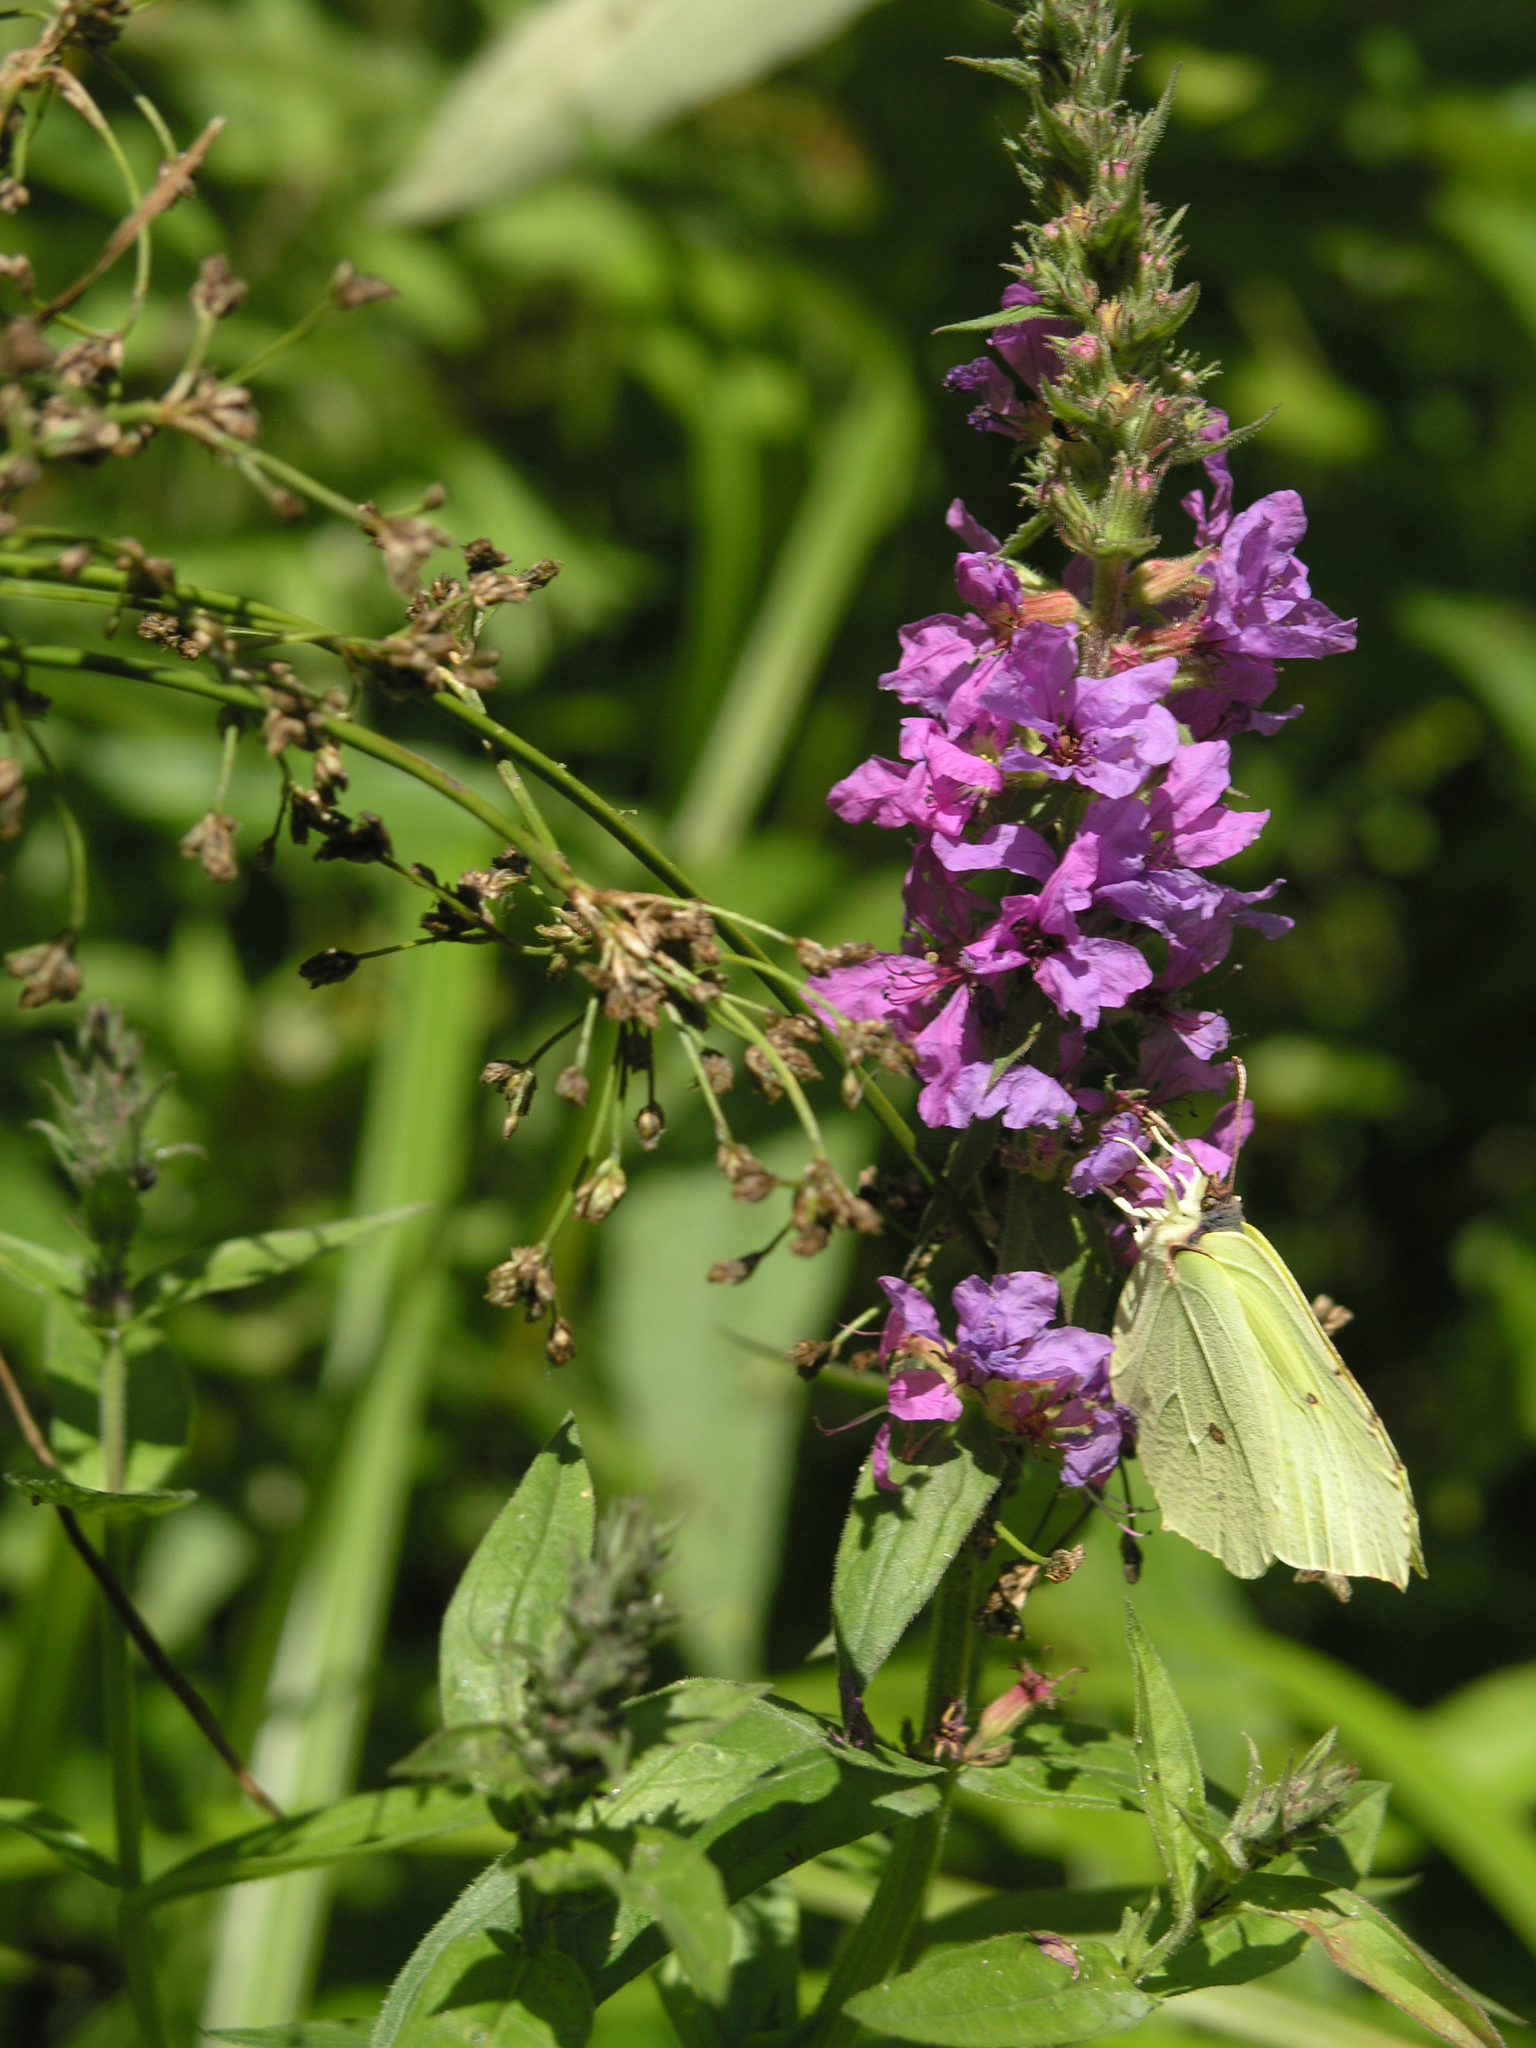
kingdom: Plantae
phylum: Tracheophyta
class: Magnoliopsida
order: Myrtales
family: Lythraceae
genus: Lythrum
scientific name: Lythrum salicaria
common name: Purple loosestrife
